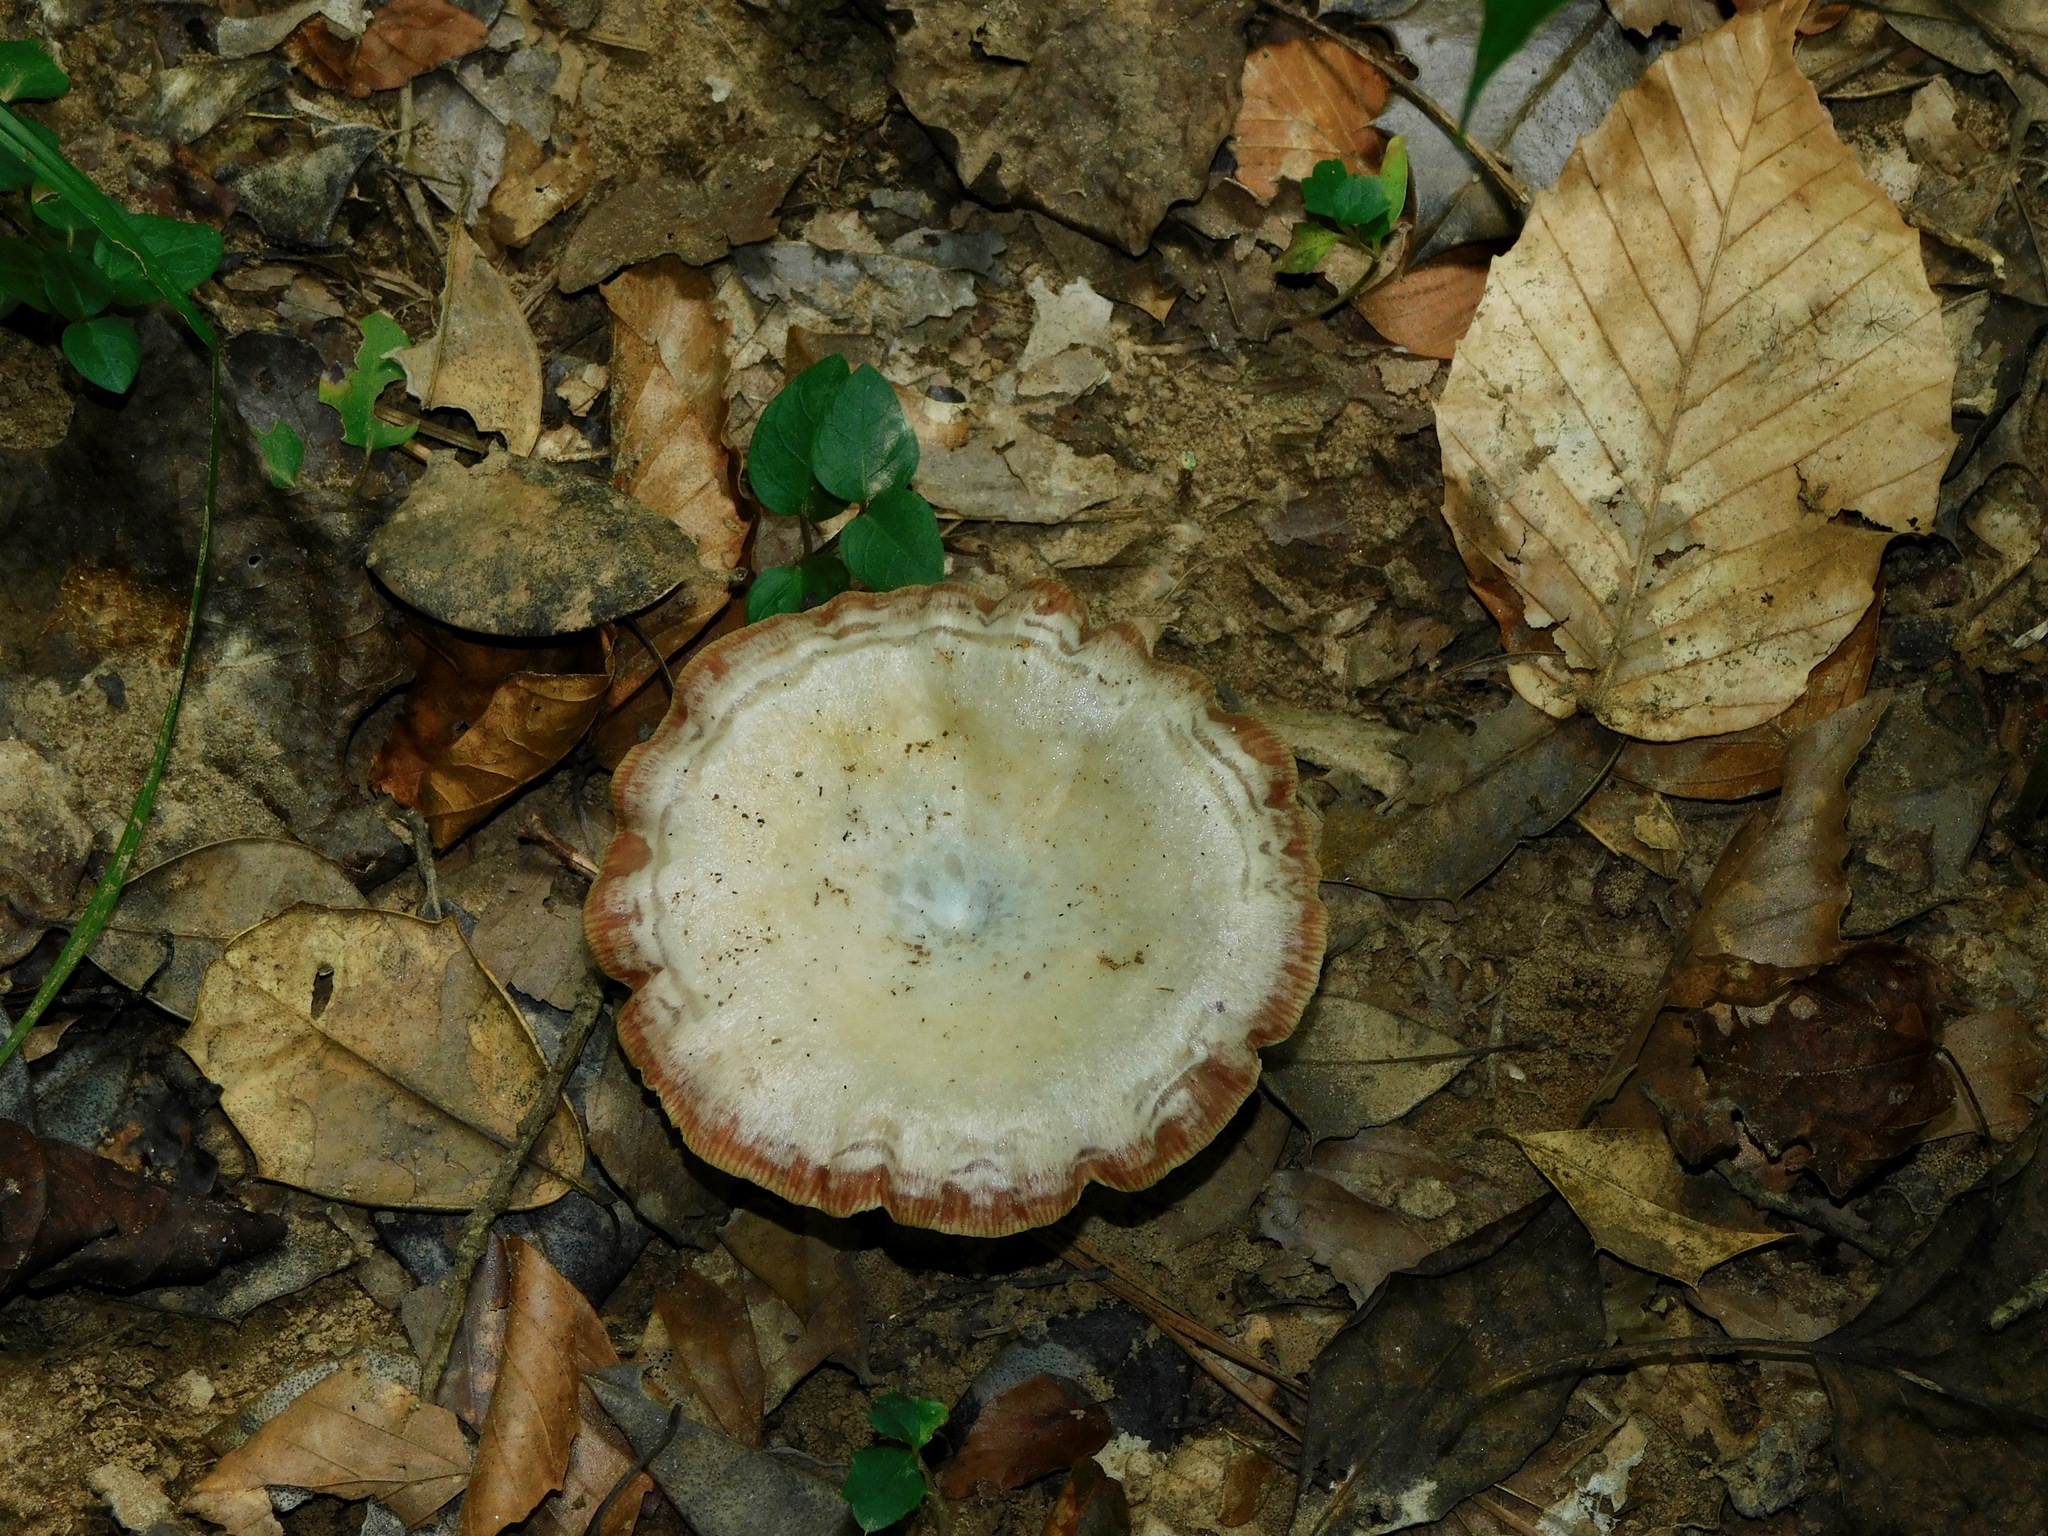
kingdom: Fungi
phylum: Basidiomycota
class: Agaricomycetes
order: Russulales
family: Russulaceae
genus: Lactarius
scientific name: Lactarius subpurpureus
